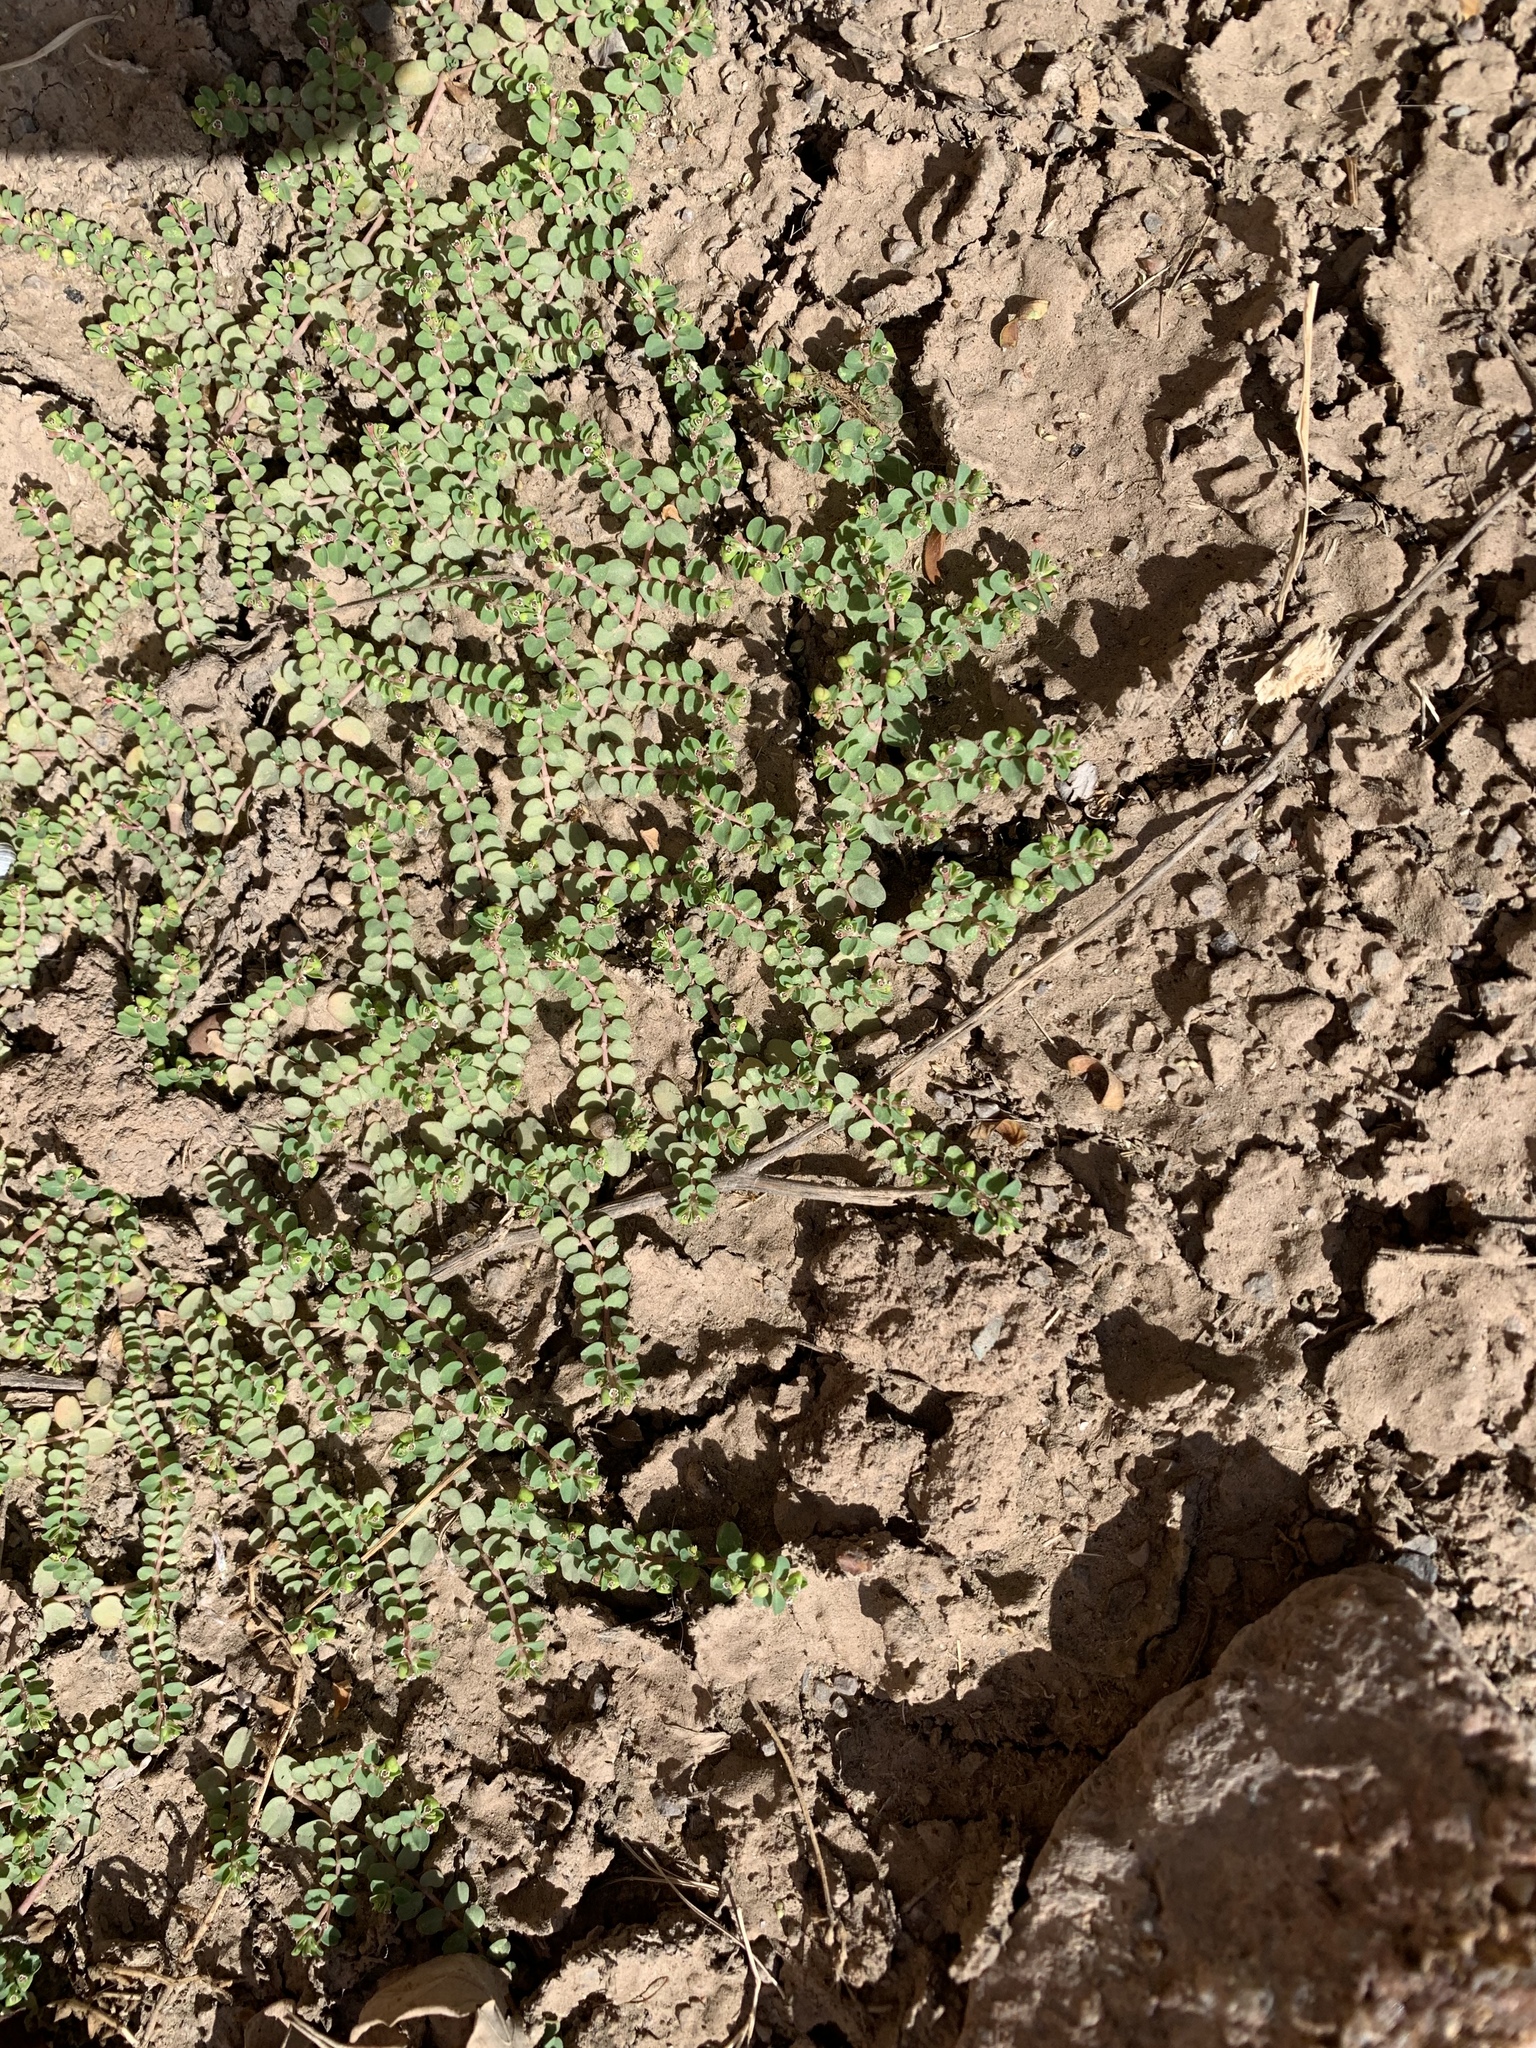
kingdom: Plantae
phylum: Tracheophyta
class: Magnoliopsida
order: Malpighiales
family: Euphorbiaceae
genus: Euphorbia
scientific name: Euphorbia serpens
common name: Matted sandmat
